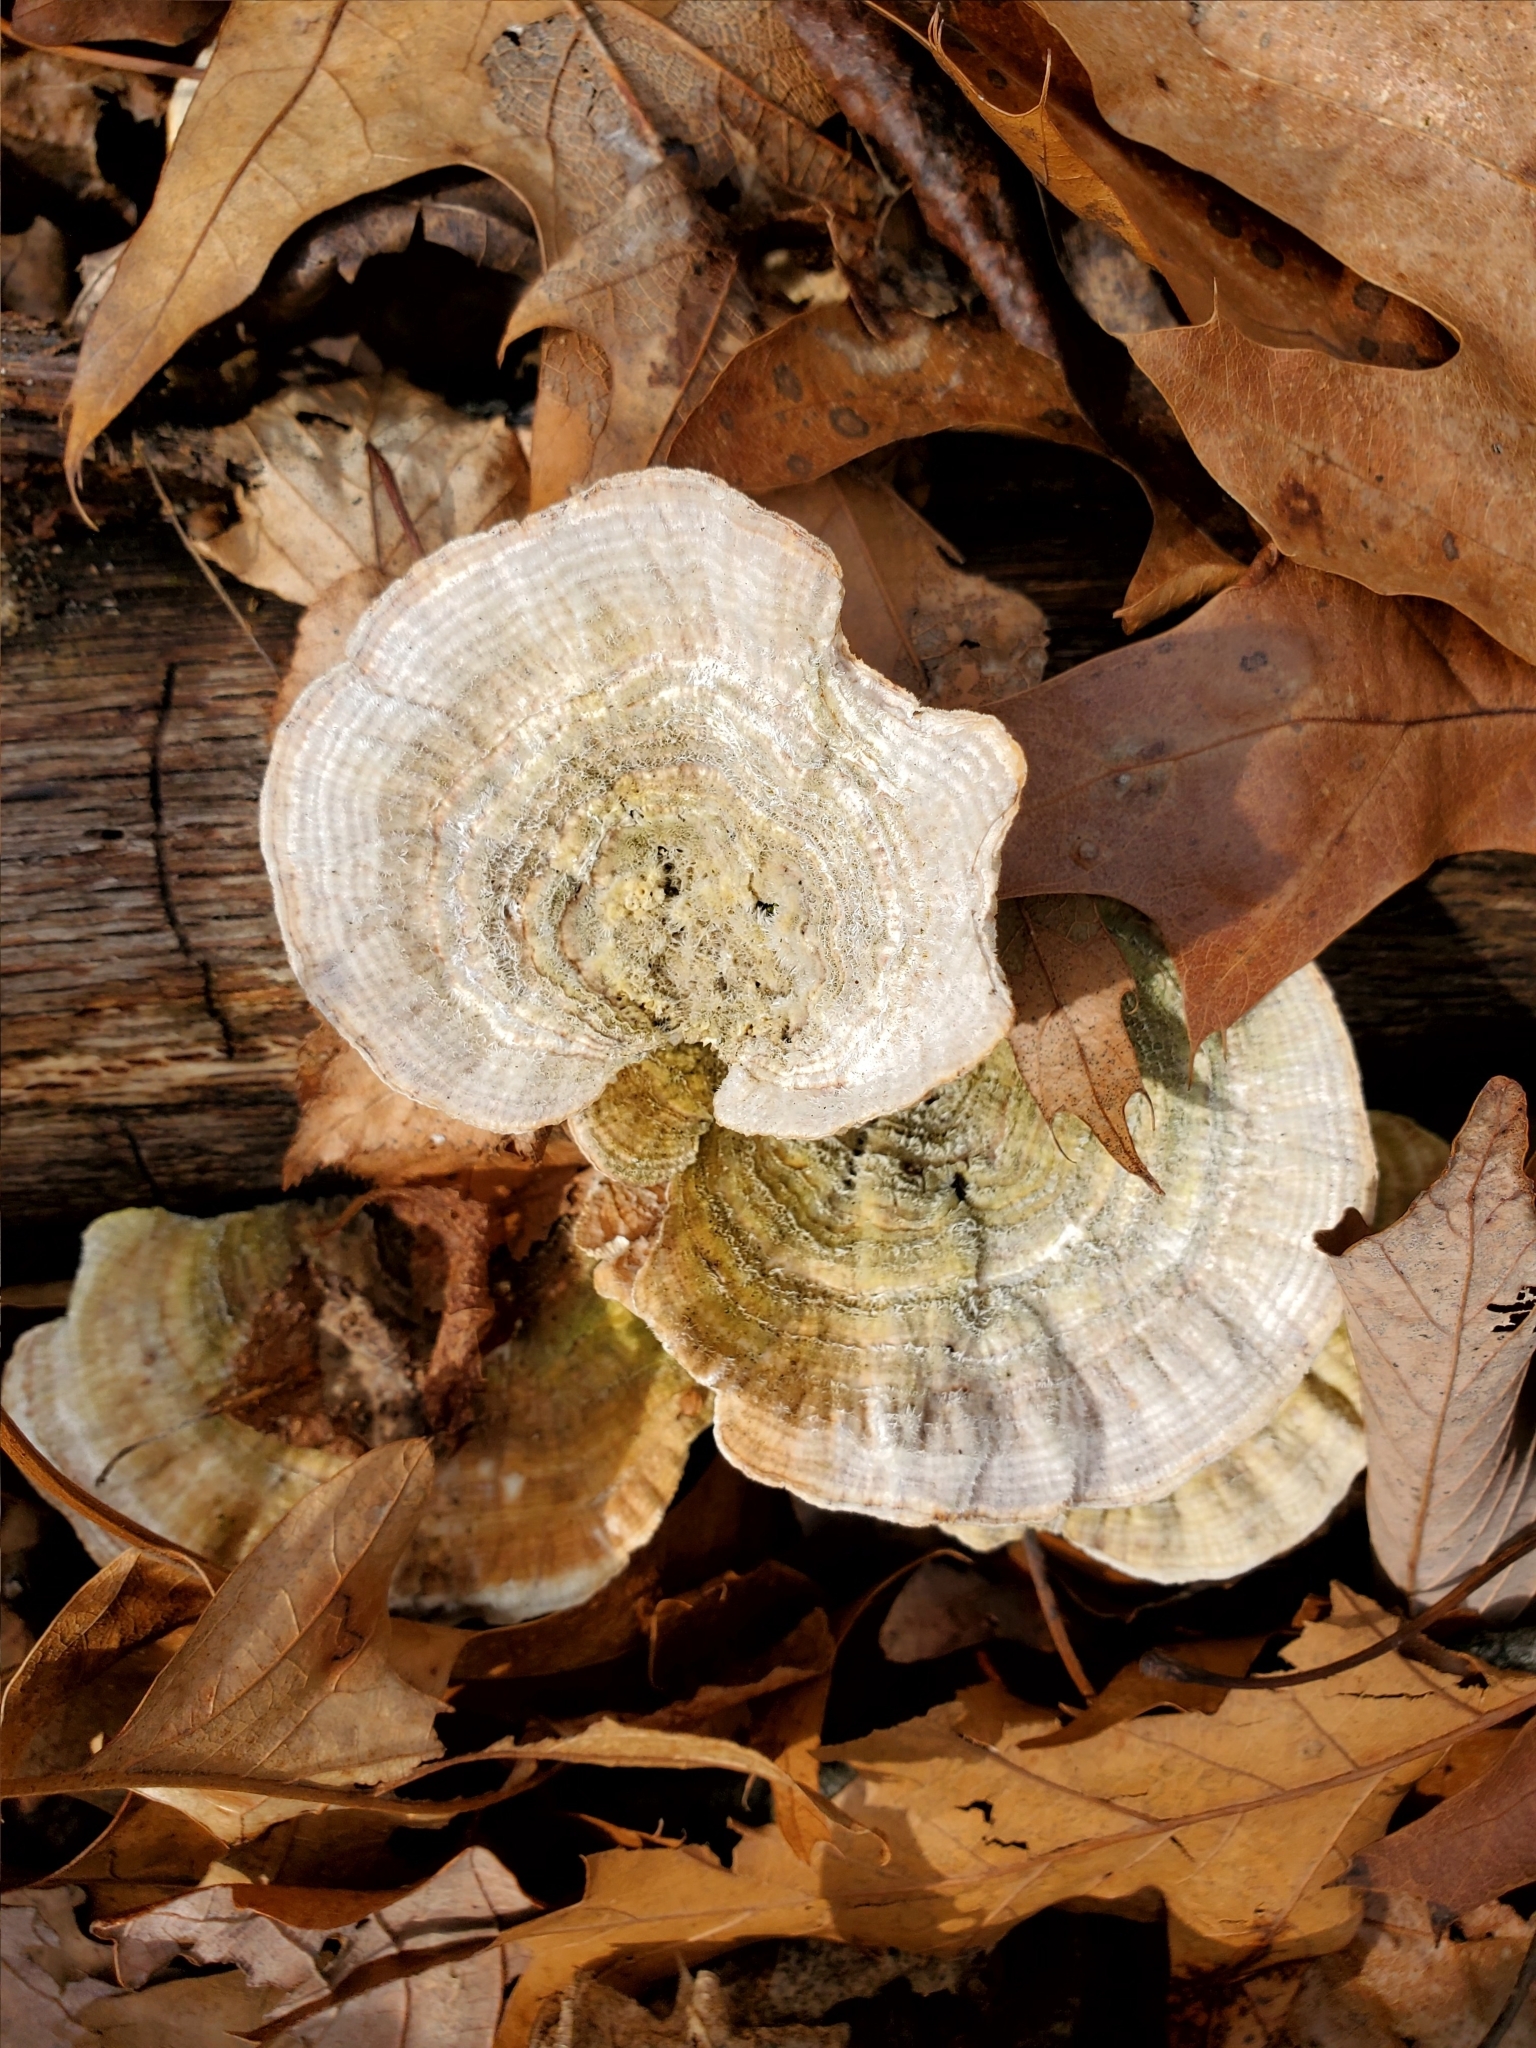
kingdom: Fungi
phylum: Basidiomycota
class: Agaricomycetes
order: Polyporales
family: Polyporaceae
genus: Lenzites
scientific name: Lenzites betulinus
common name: Birch mazegill
